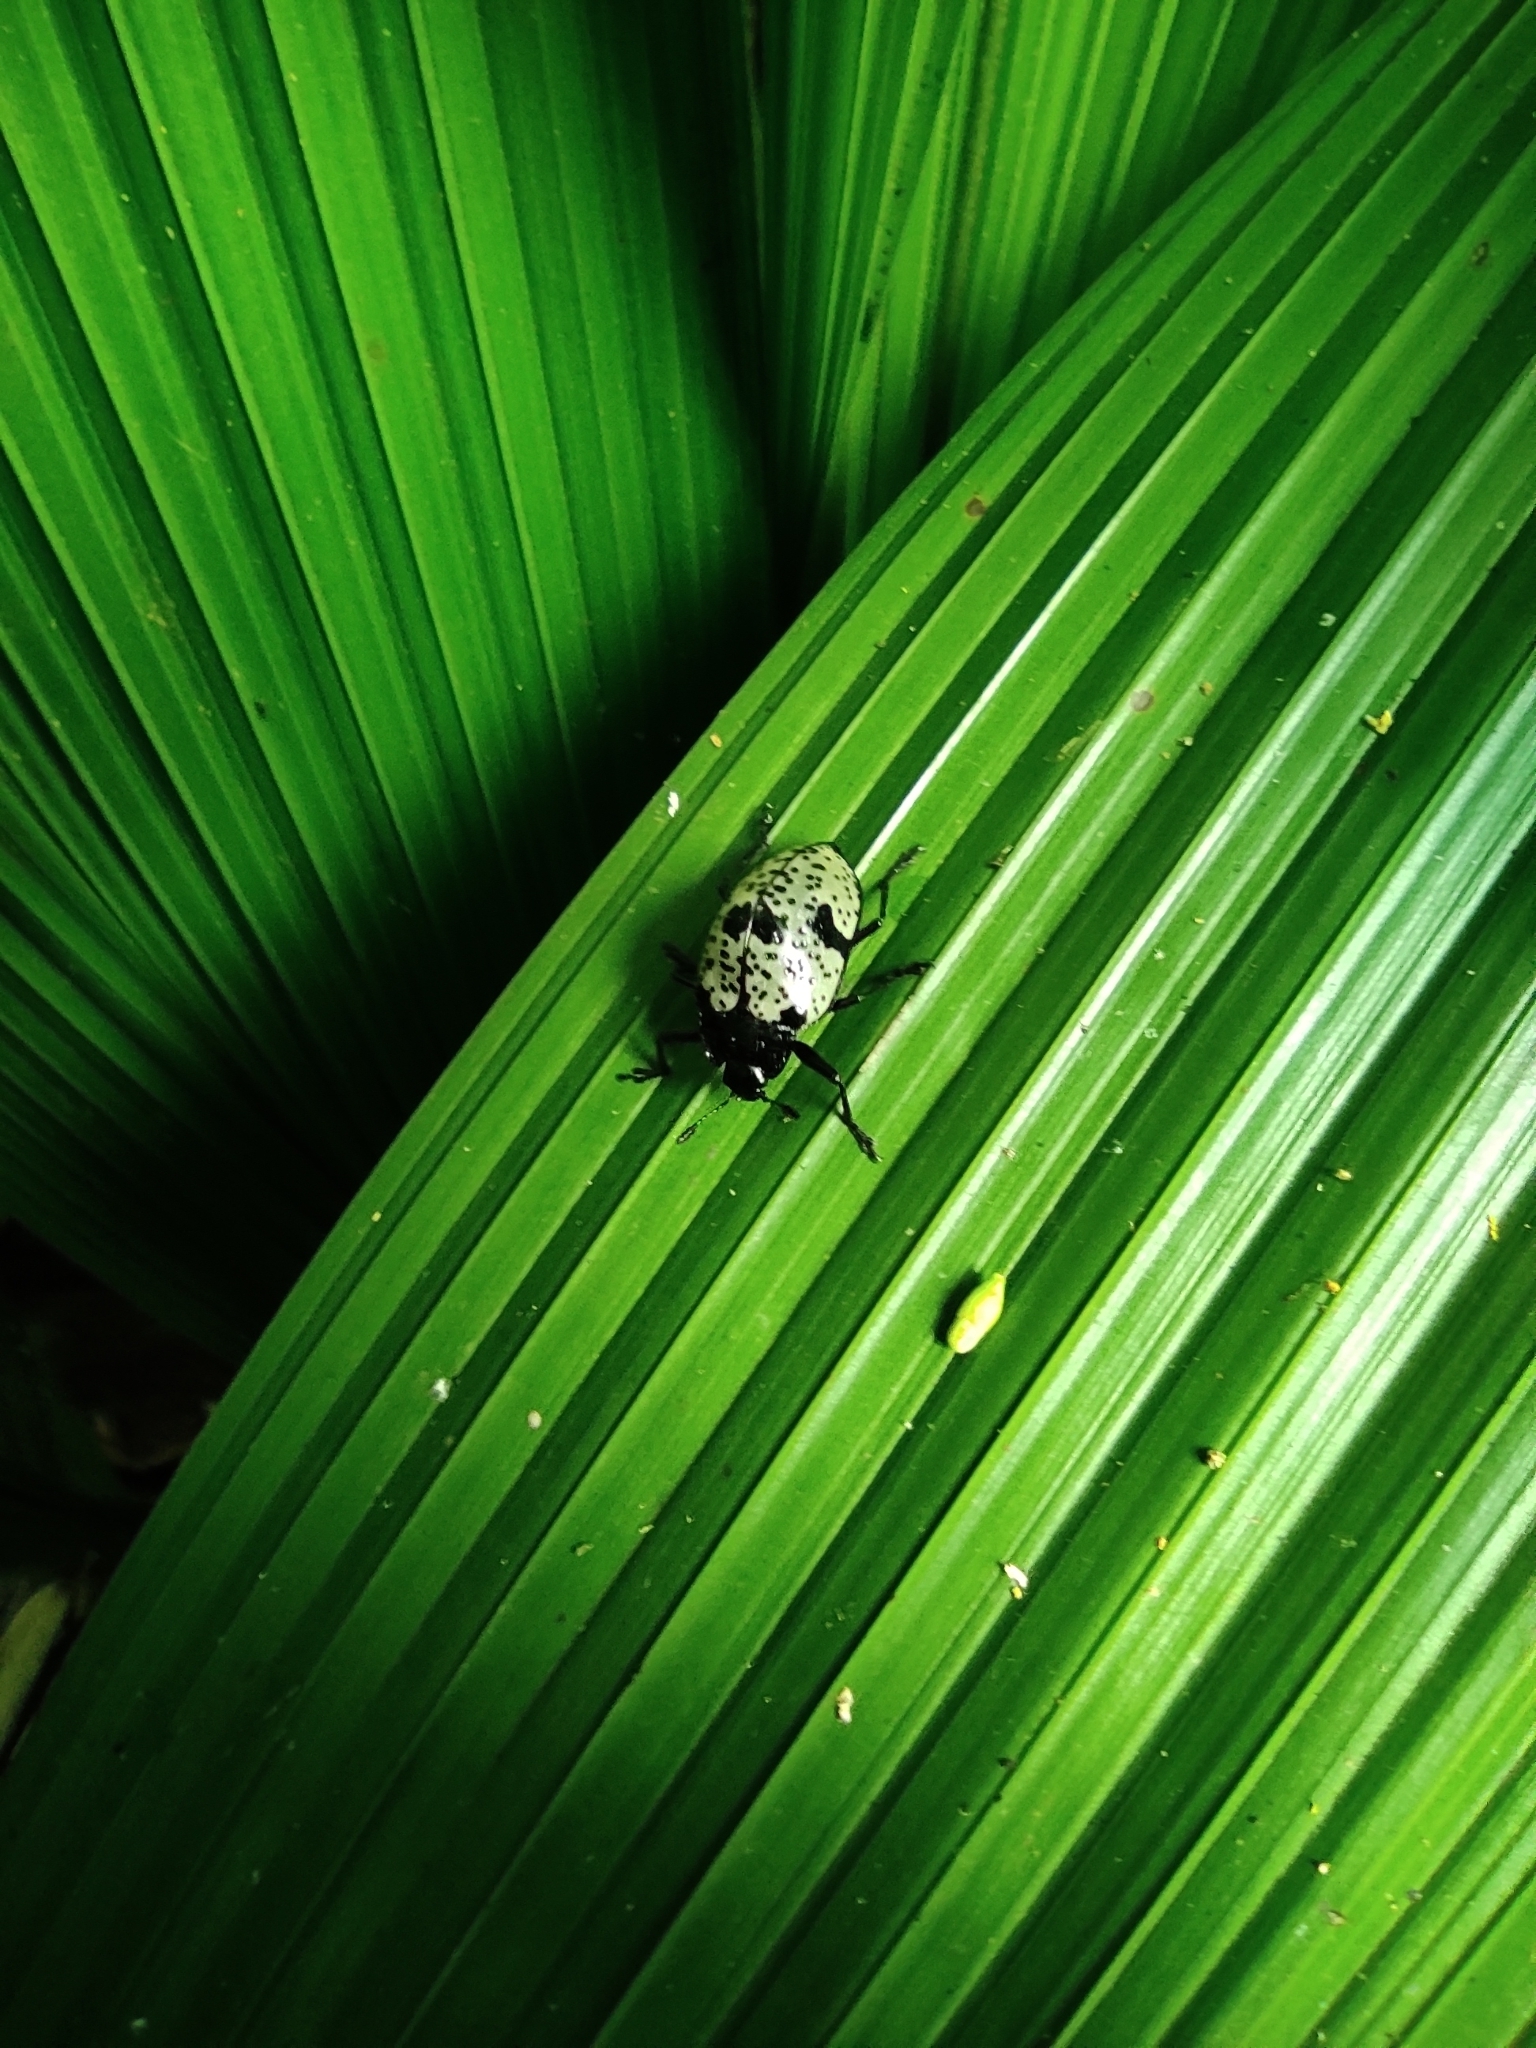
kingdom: Animalia
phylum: Arthropoda
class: Insecta
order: Coleoptera
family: Erotylidae
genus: Gibbifer
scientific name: Gibbifer
